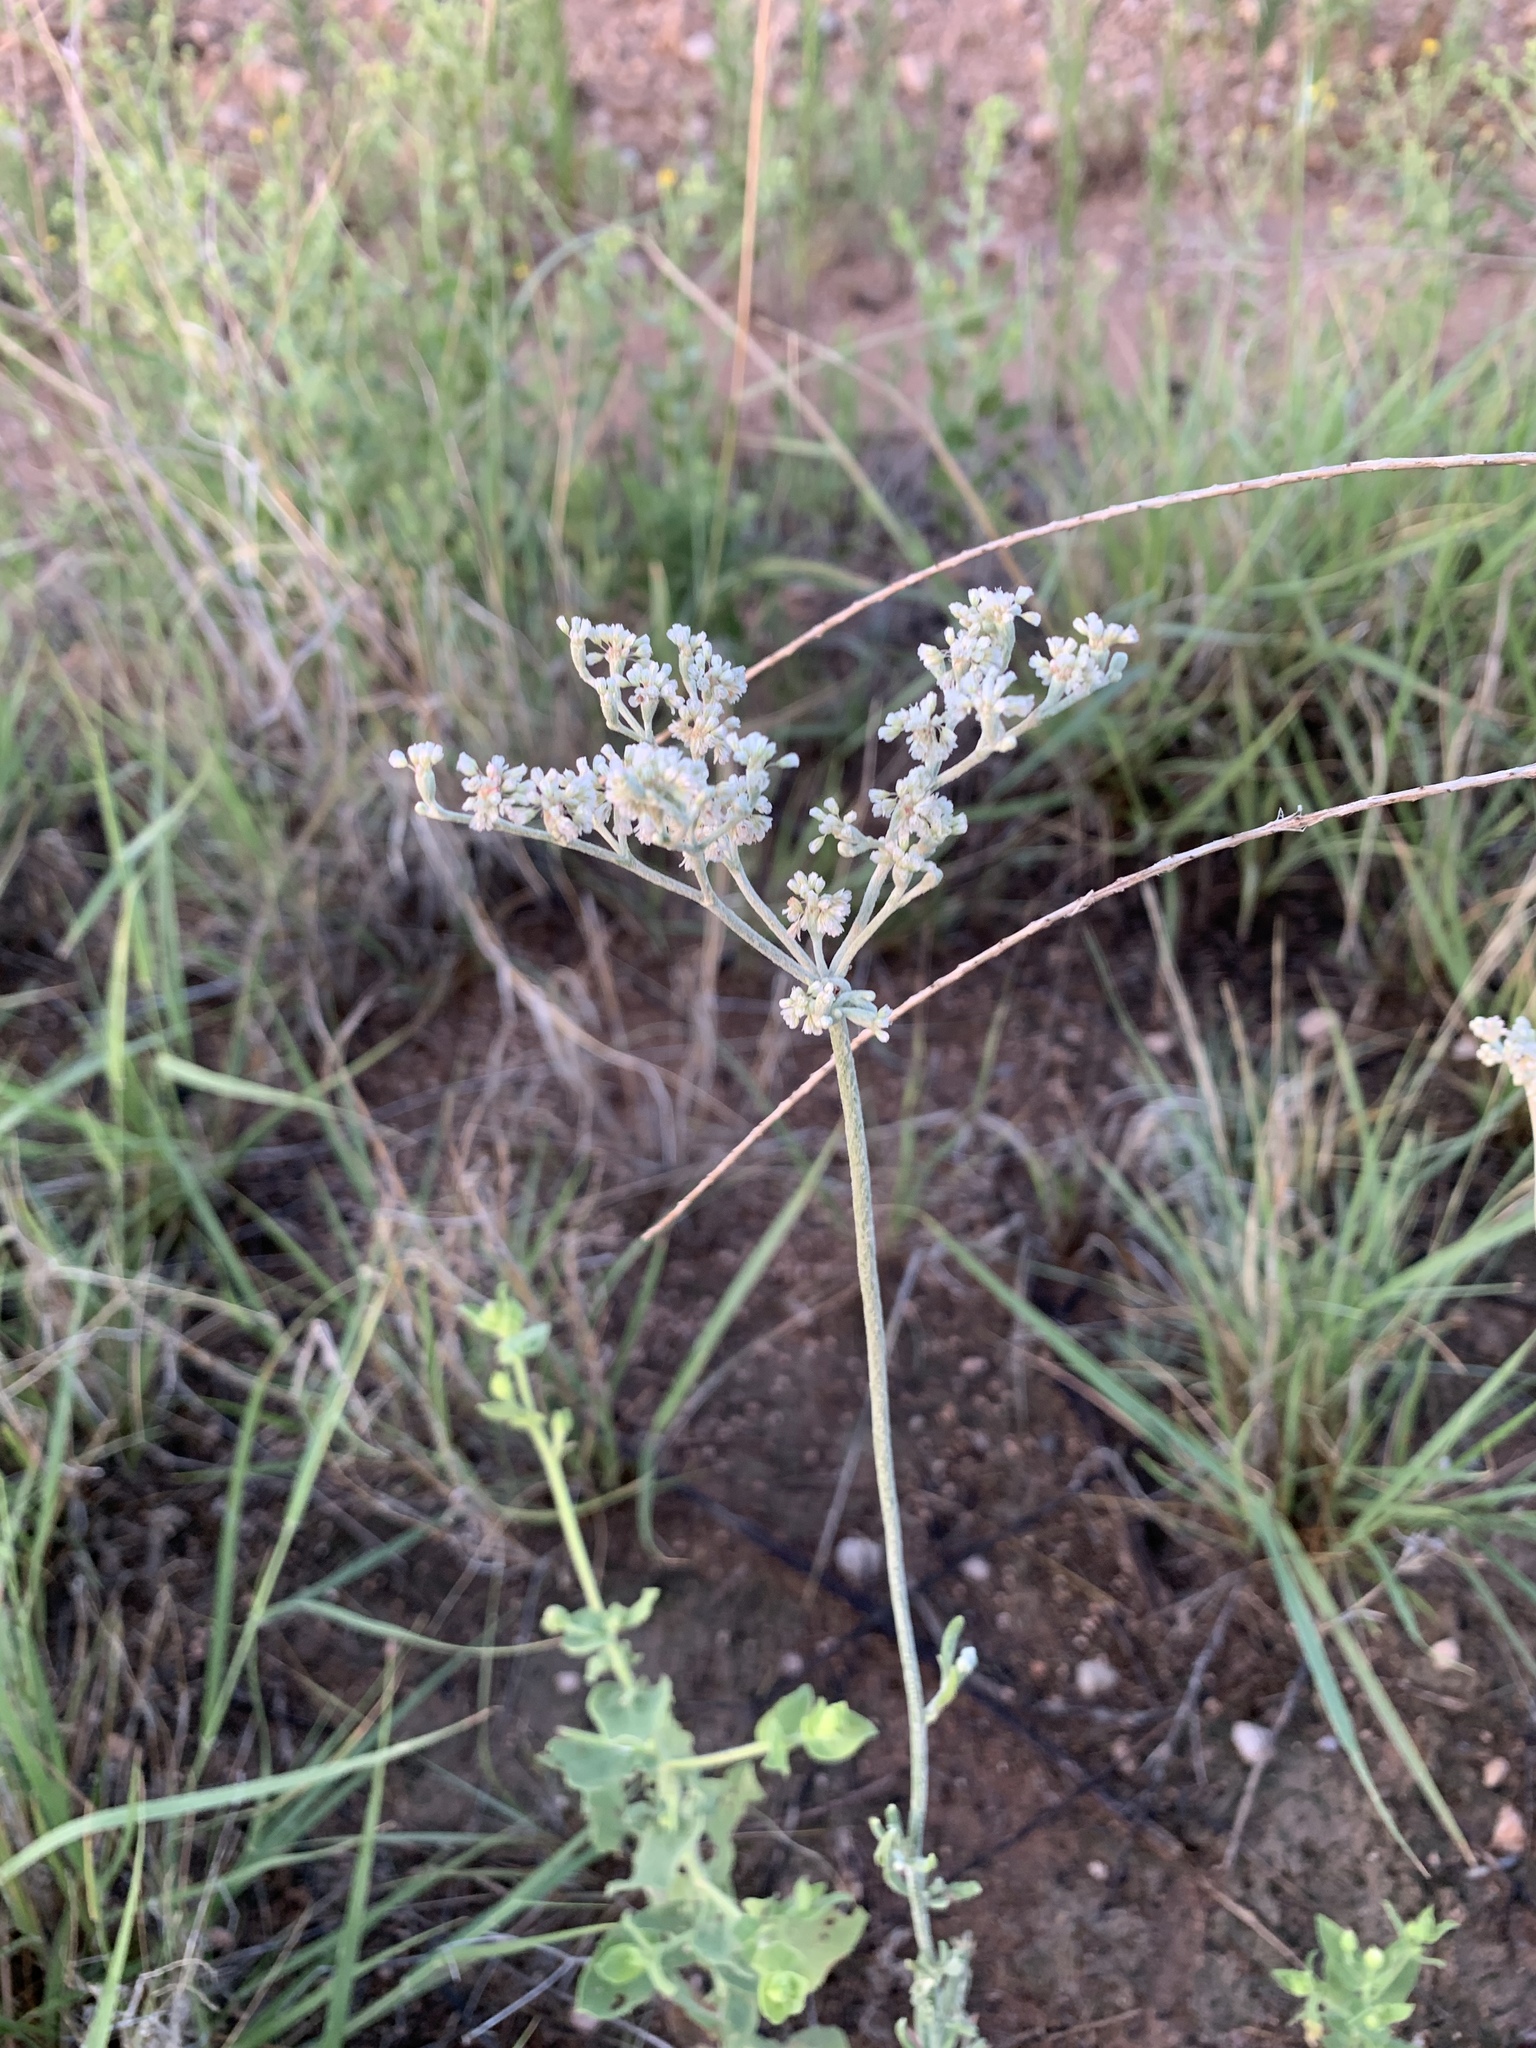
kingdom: Plantae
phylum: Tracheophyta
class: Magnoliopsida
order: Caryophyllales
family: Polygonaceae
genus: Eriogonum
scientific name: Eriogonum annuum
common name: Annual wild buckwheat
